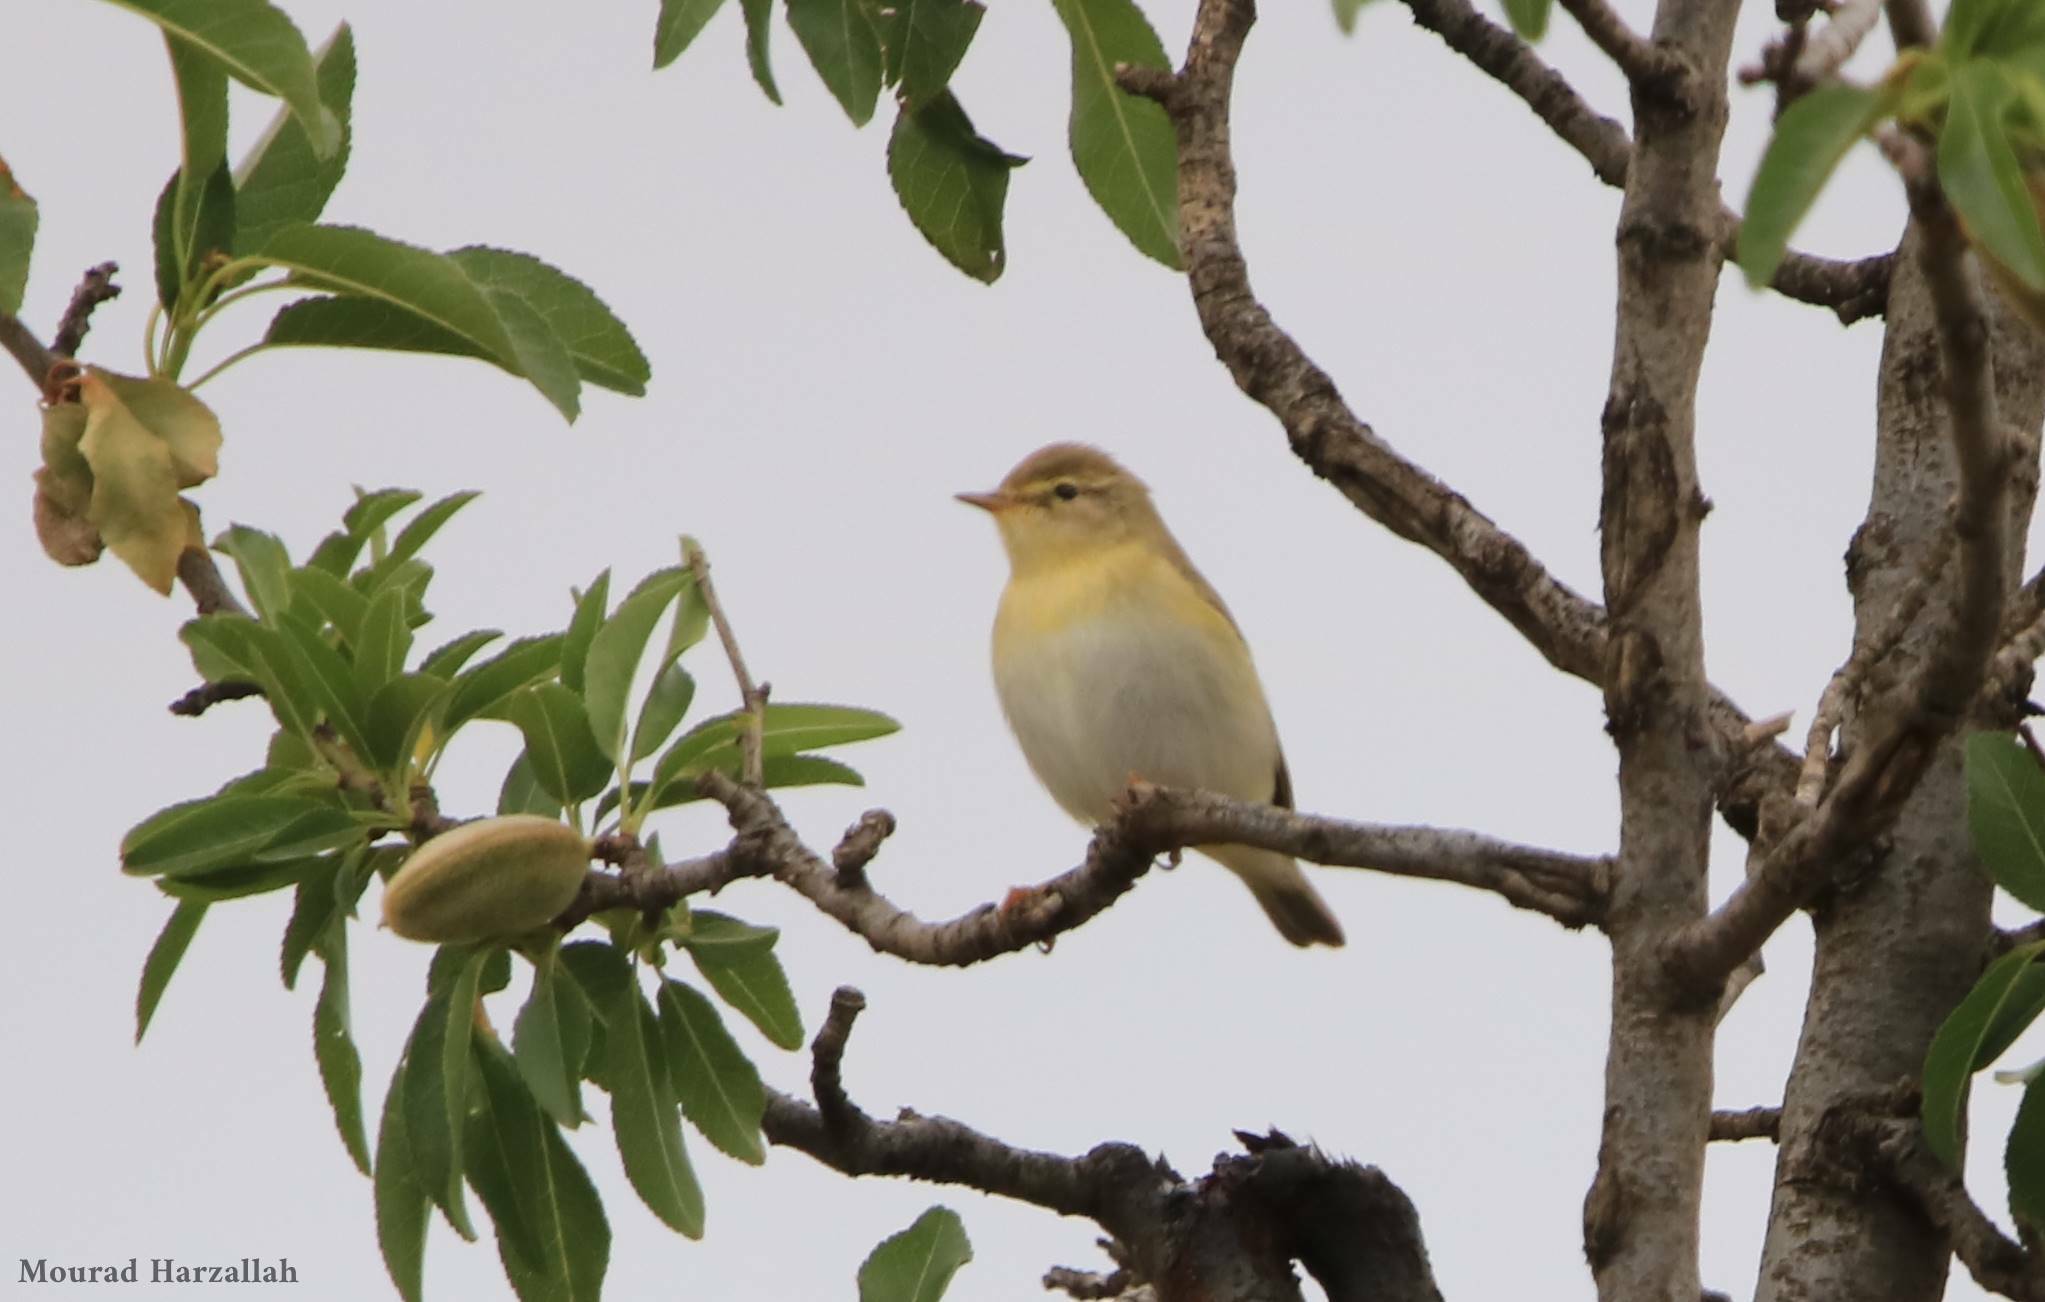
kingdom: Animalia
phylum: Chordata
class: Aves
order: Passeriformes
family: Phylloscopidae
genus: Phylloscopus
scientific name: Phylloscopus sibillatrix
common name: Wood warbler
